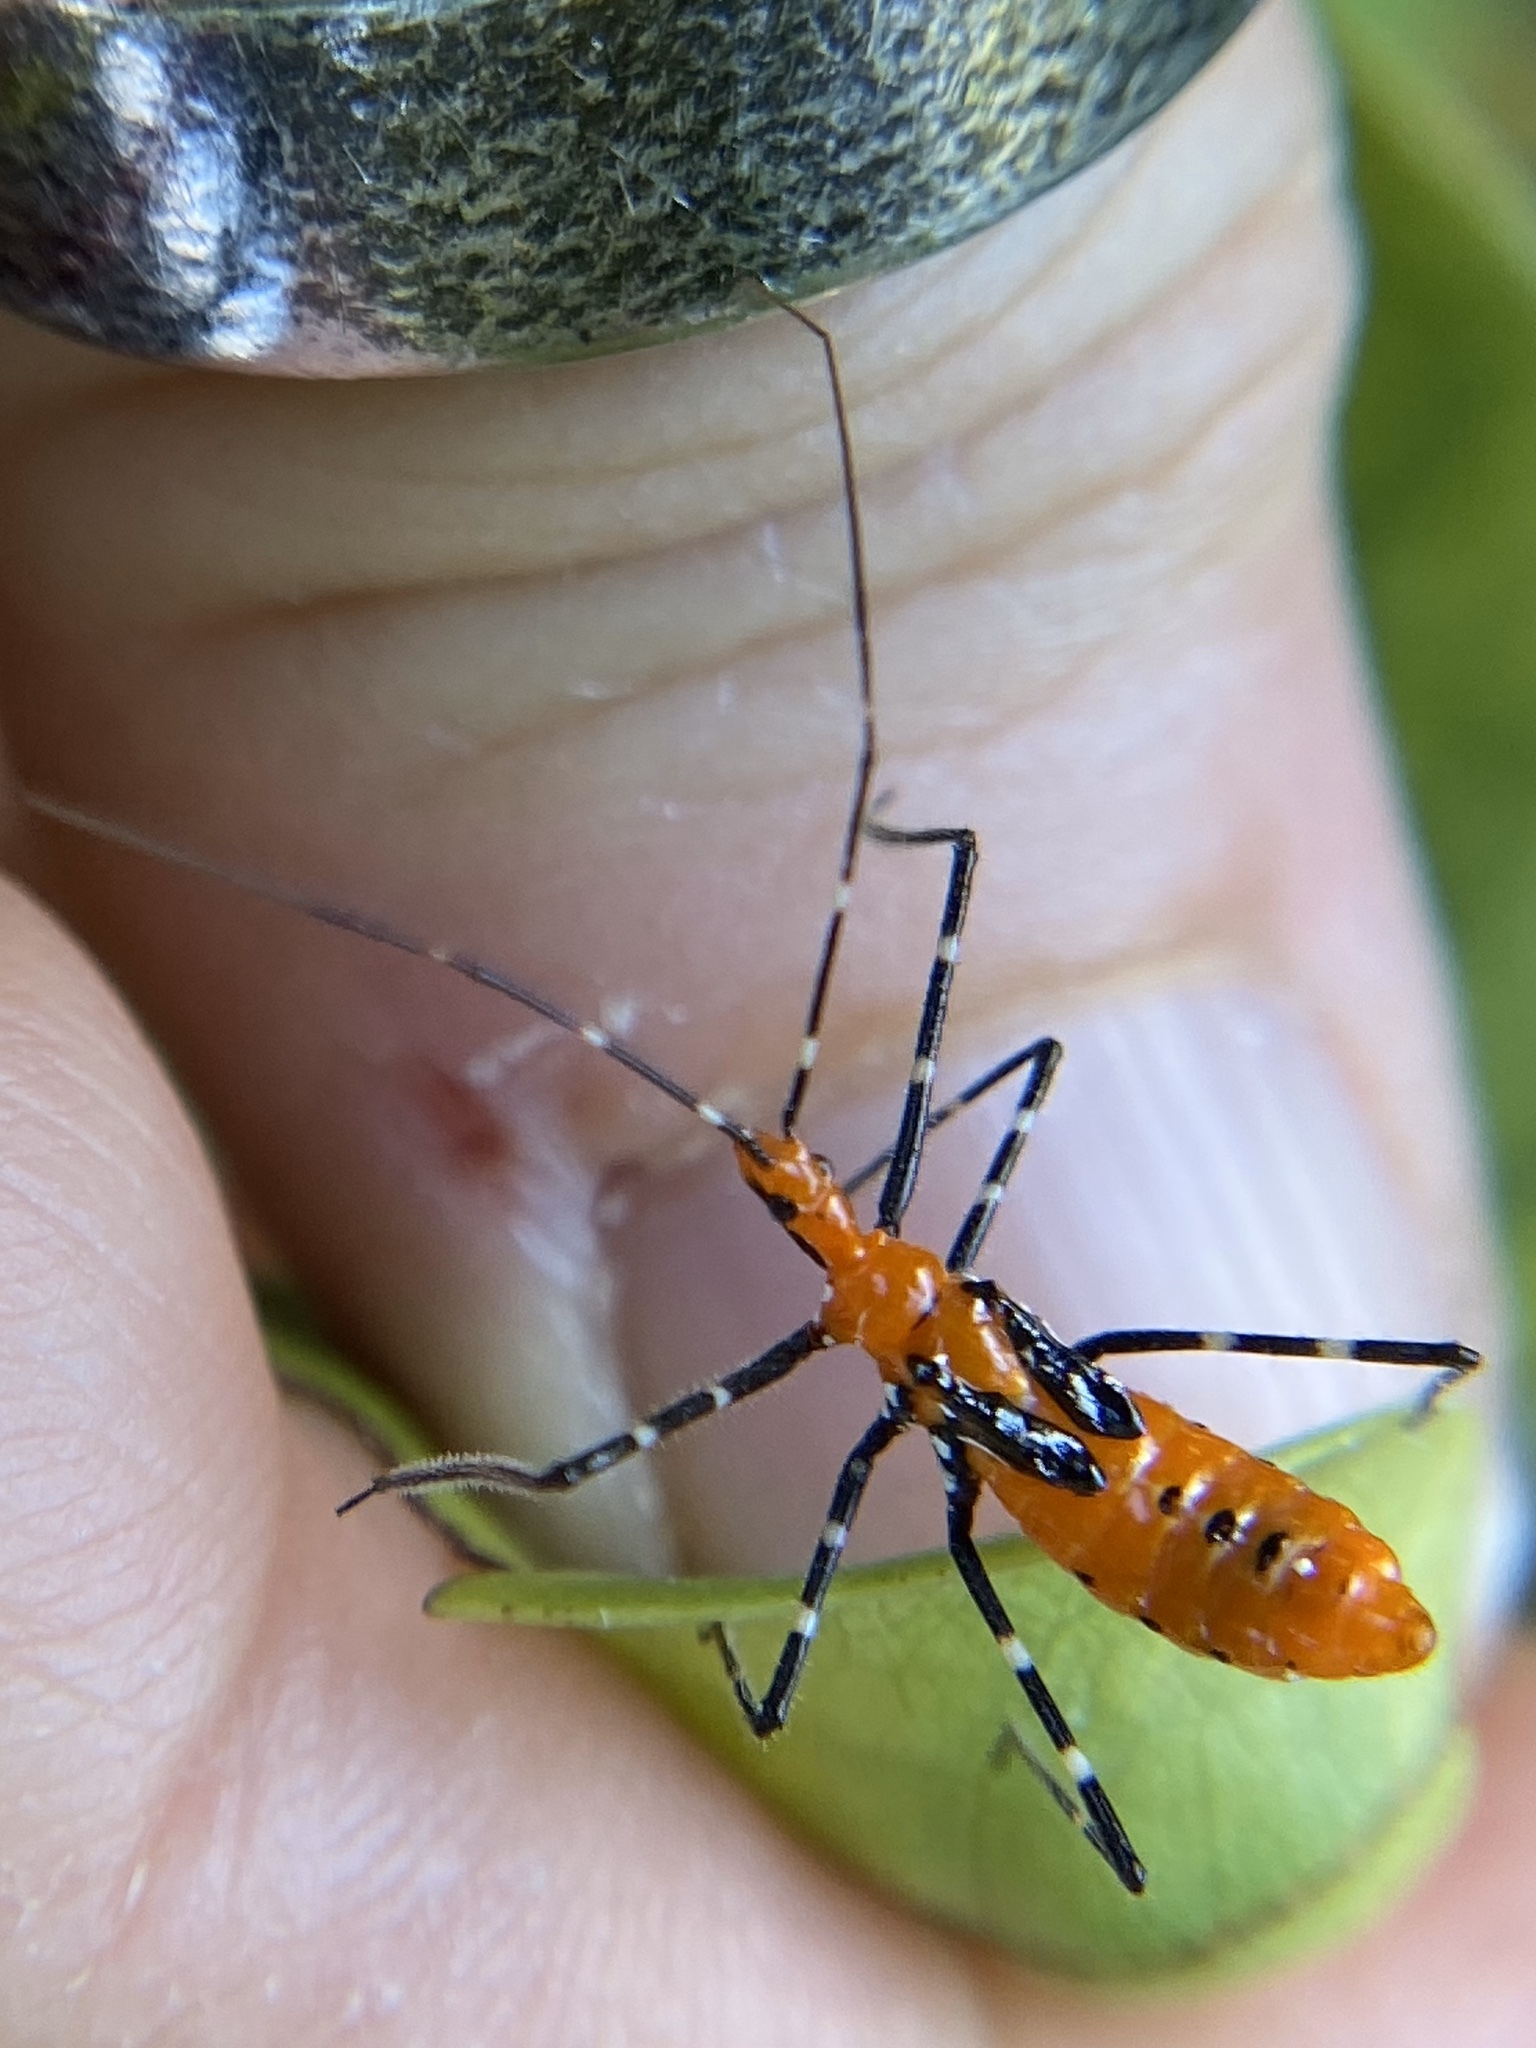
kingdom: Animalia
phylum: Arthropoda
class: Insecta
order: Hemiptera
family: Reduviidae
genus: Zelus
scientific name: Zelus longipes
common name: Milkweed assassin bug
